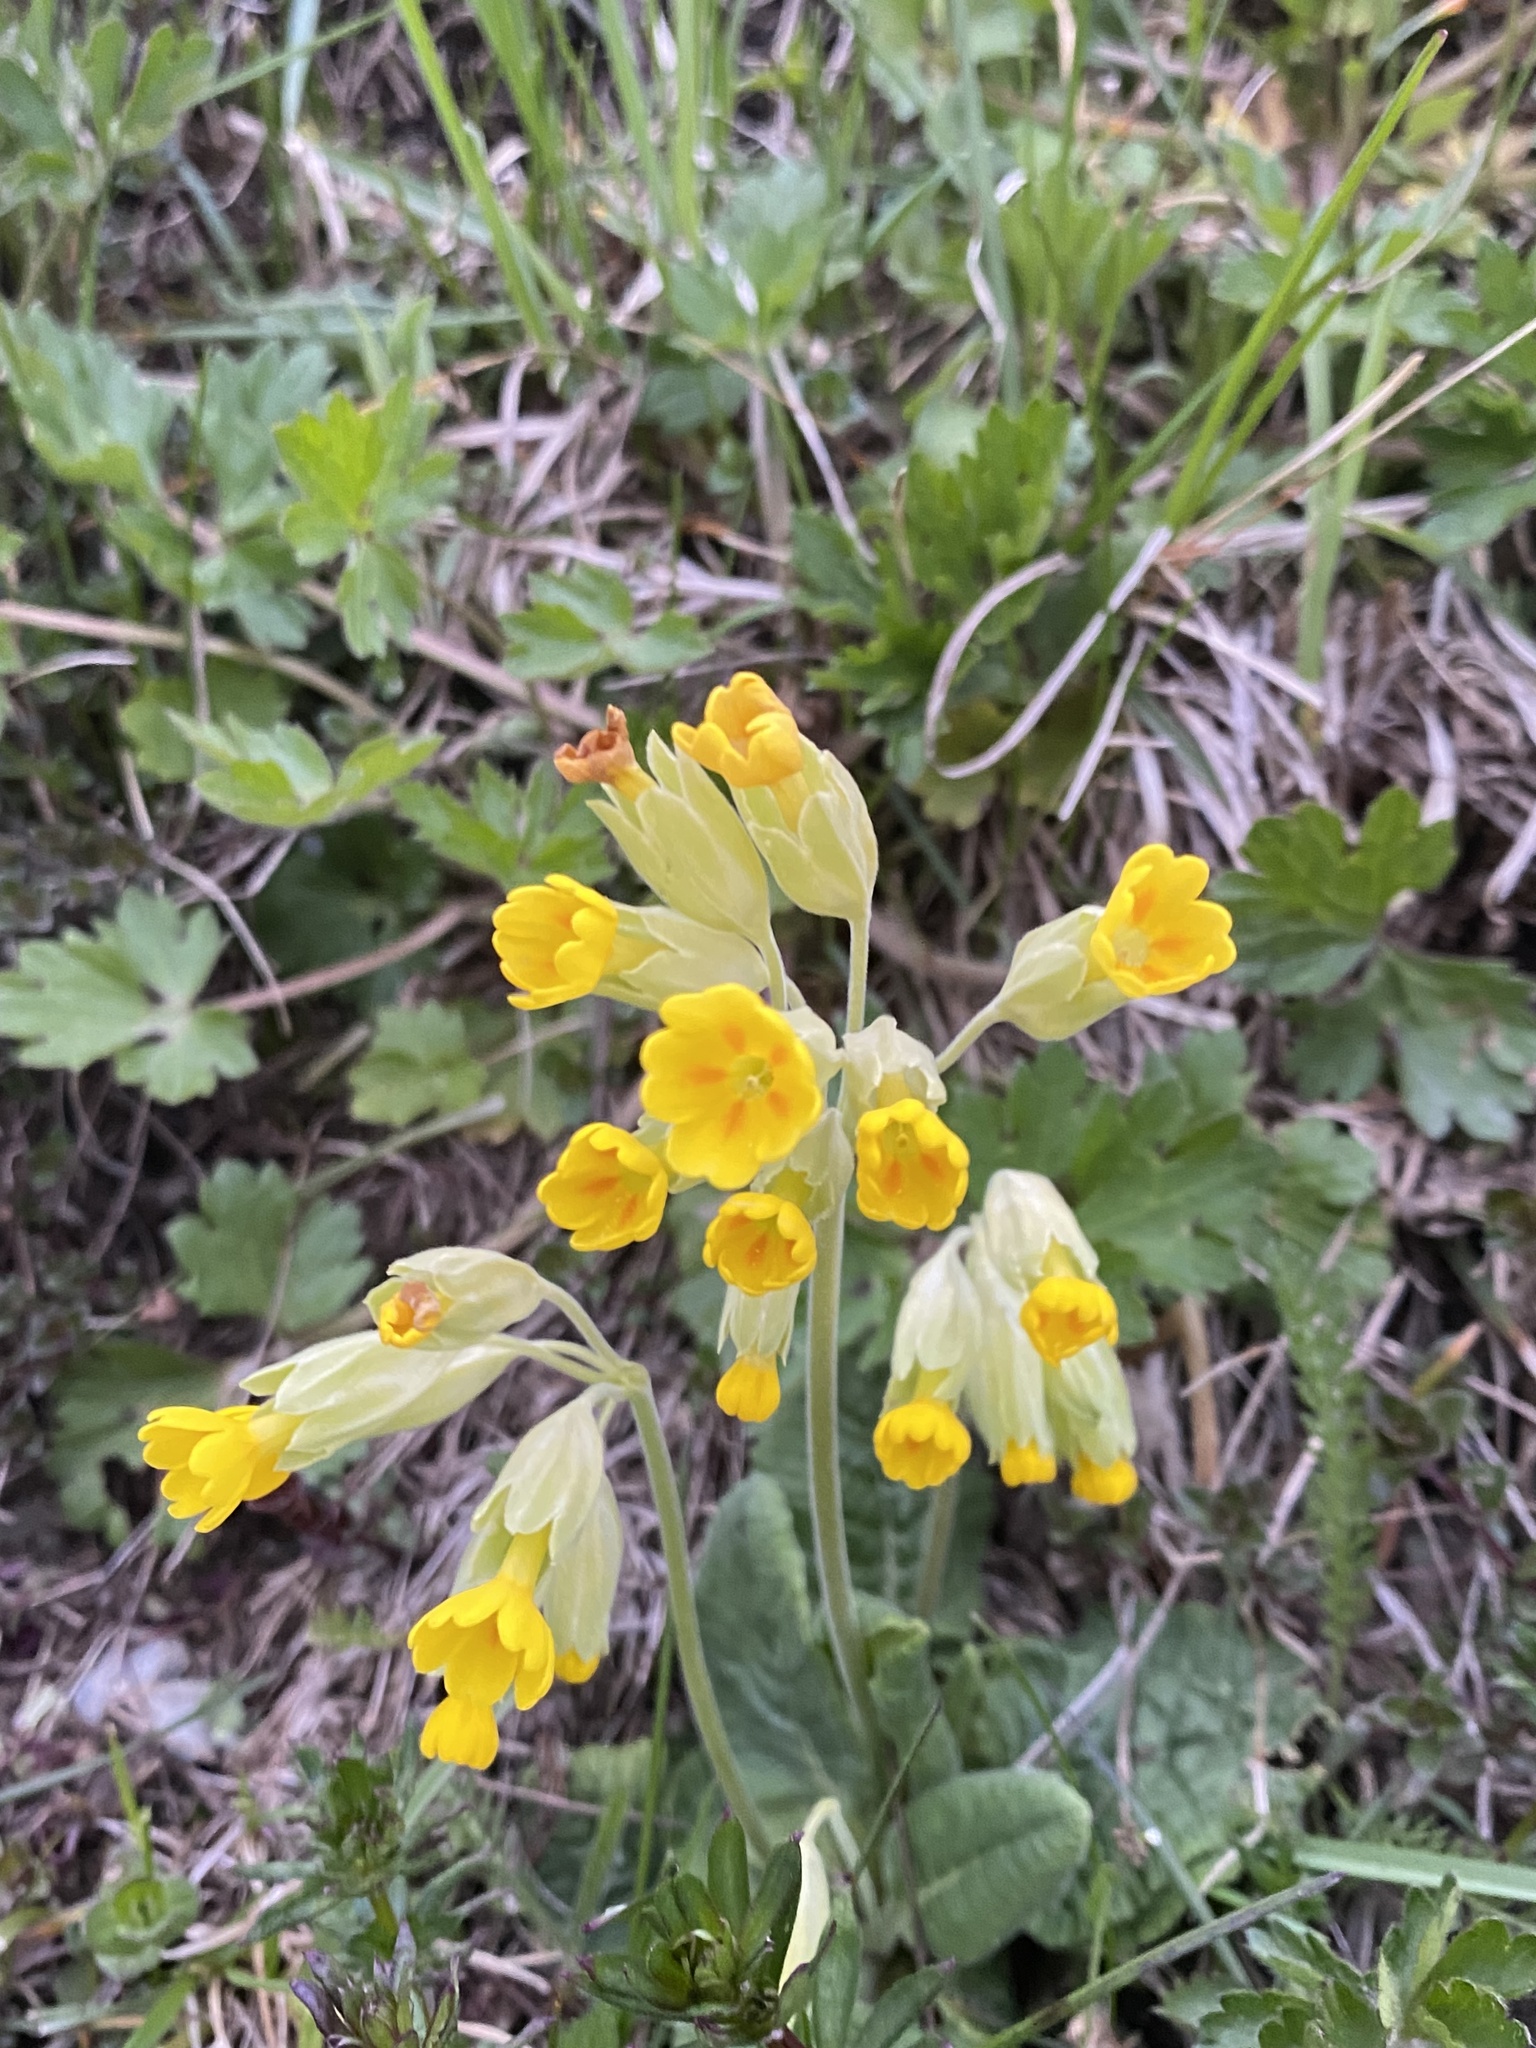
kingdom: Plantae
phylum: Tracheophyta
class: Magnoliopsida
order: Ericales
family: Primulaceae
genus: Primula
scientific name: Primula veris
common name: Cowslip
